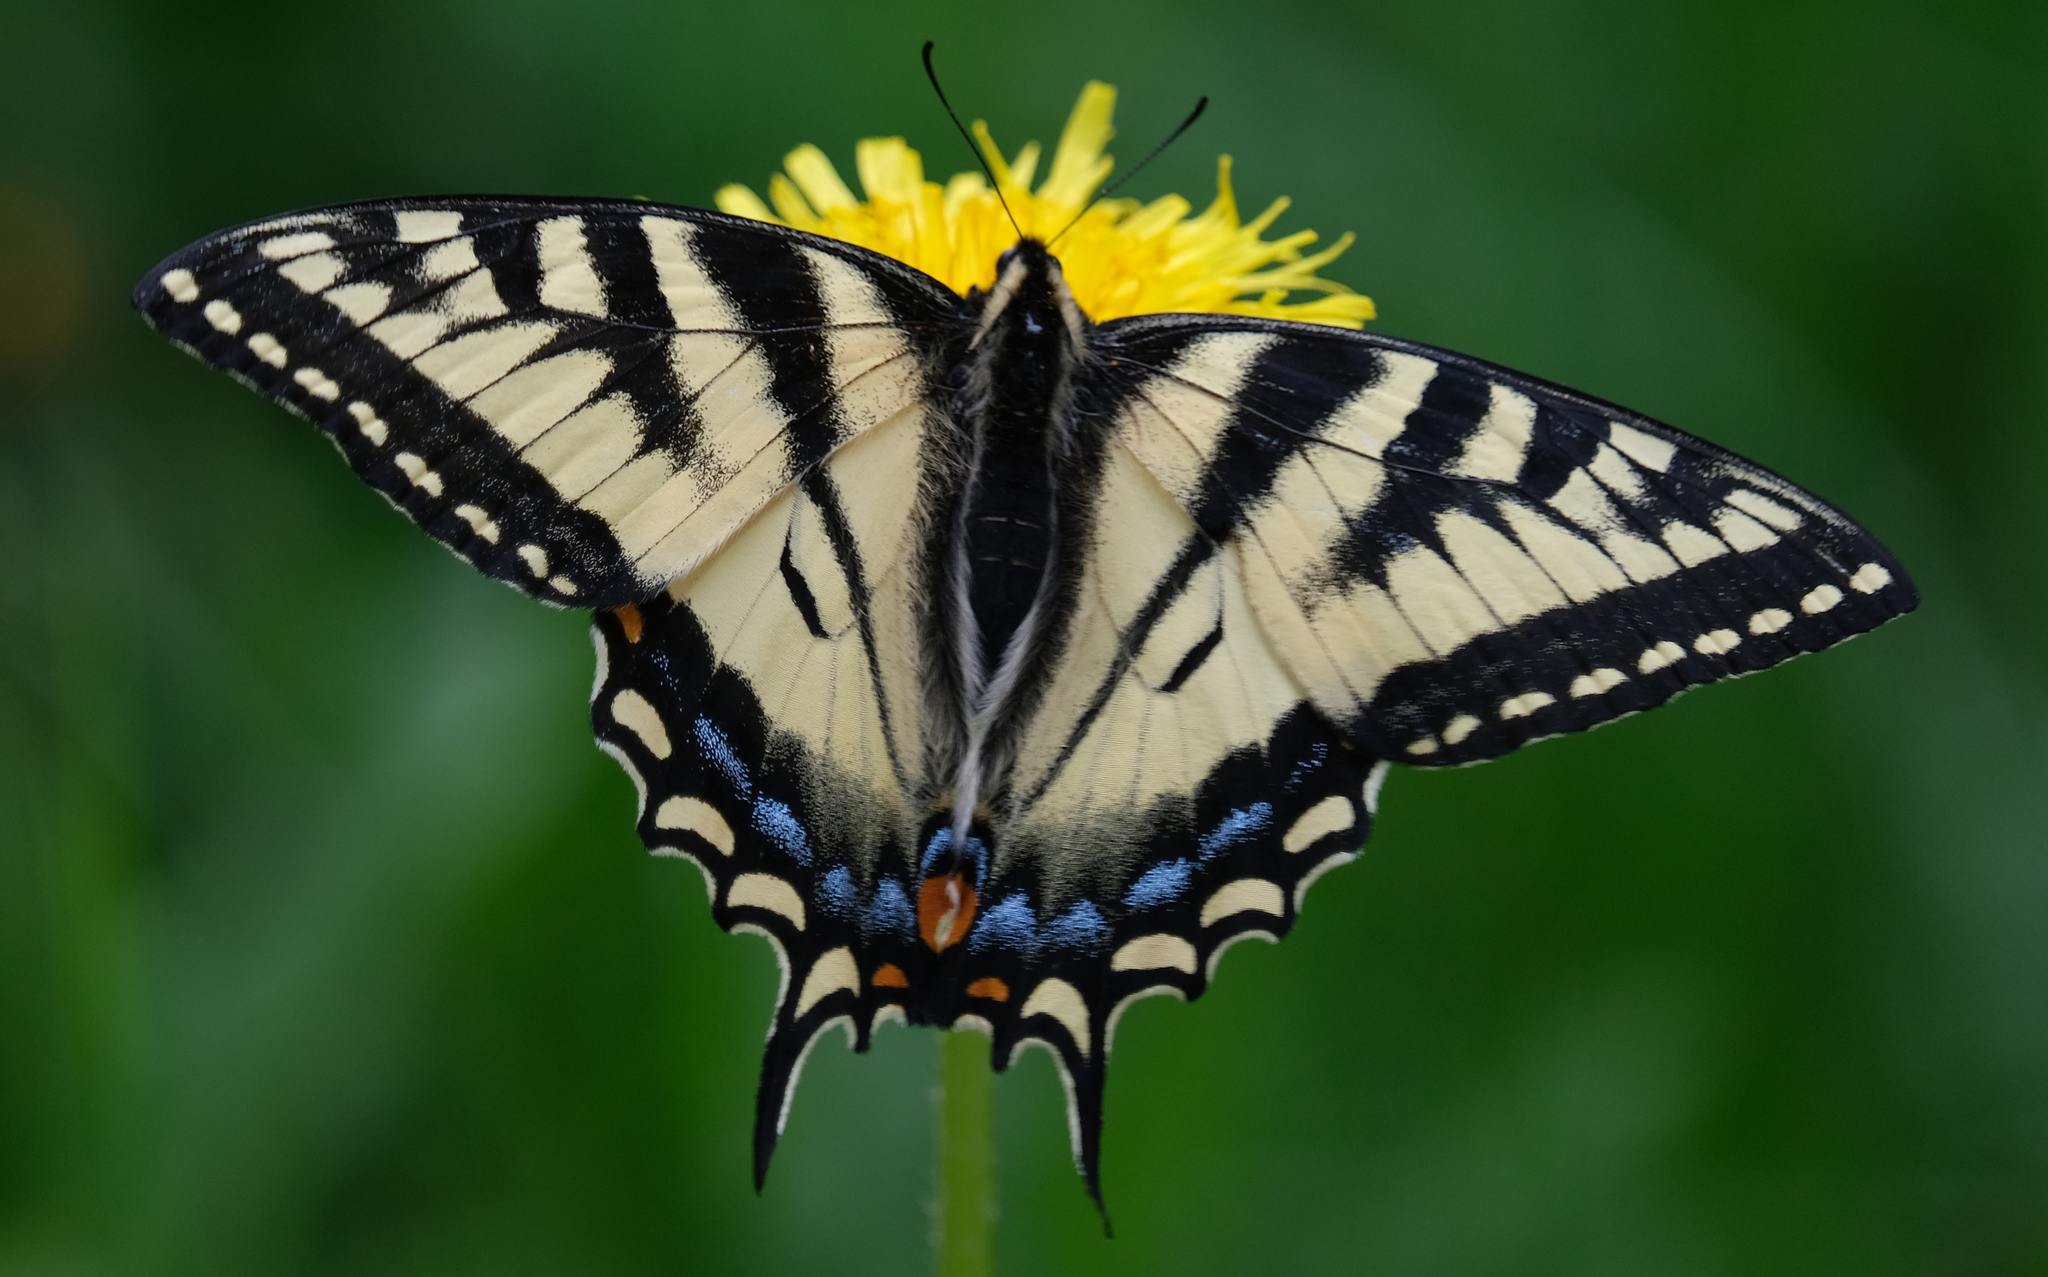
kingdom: Animalia
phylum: Arthropoda
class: Insecta
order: Lepidoptera
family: Papilionidae
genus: Papilio
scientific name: Papilio canadensis
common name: Canadian tiger swallowtail
